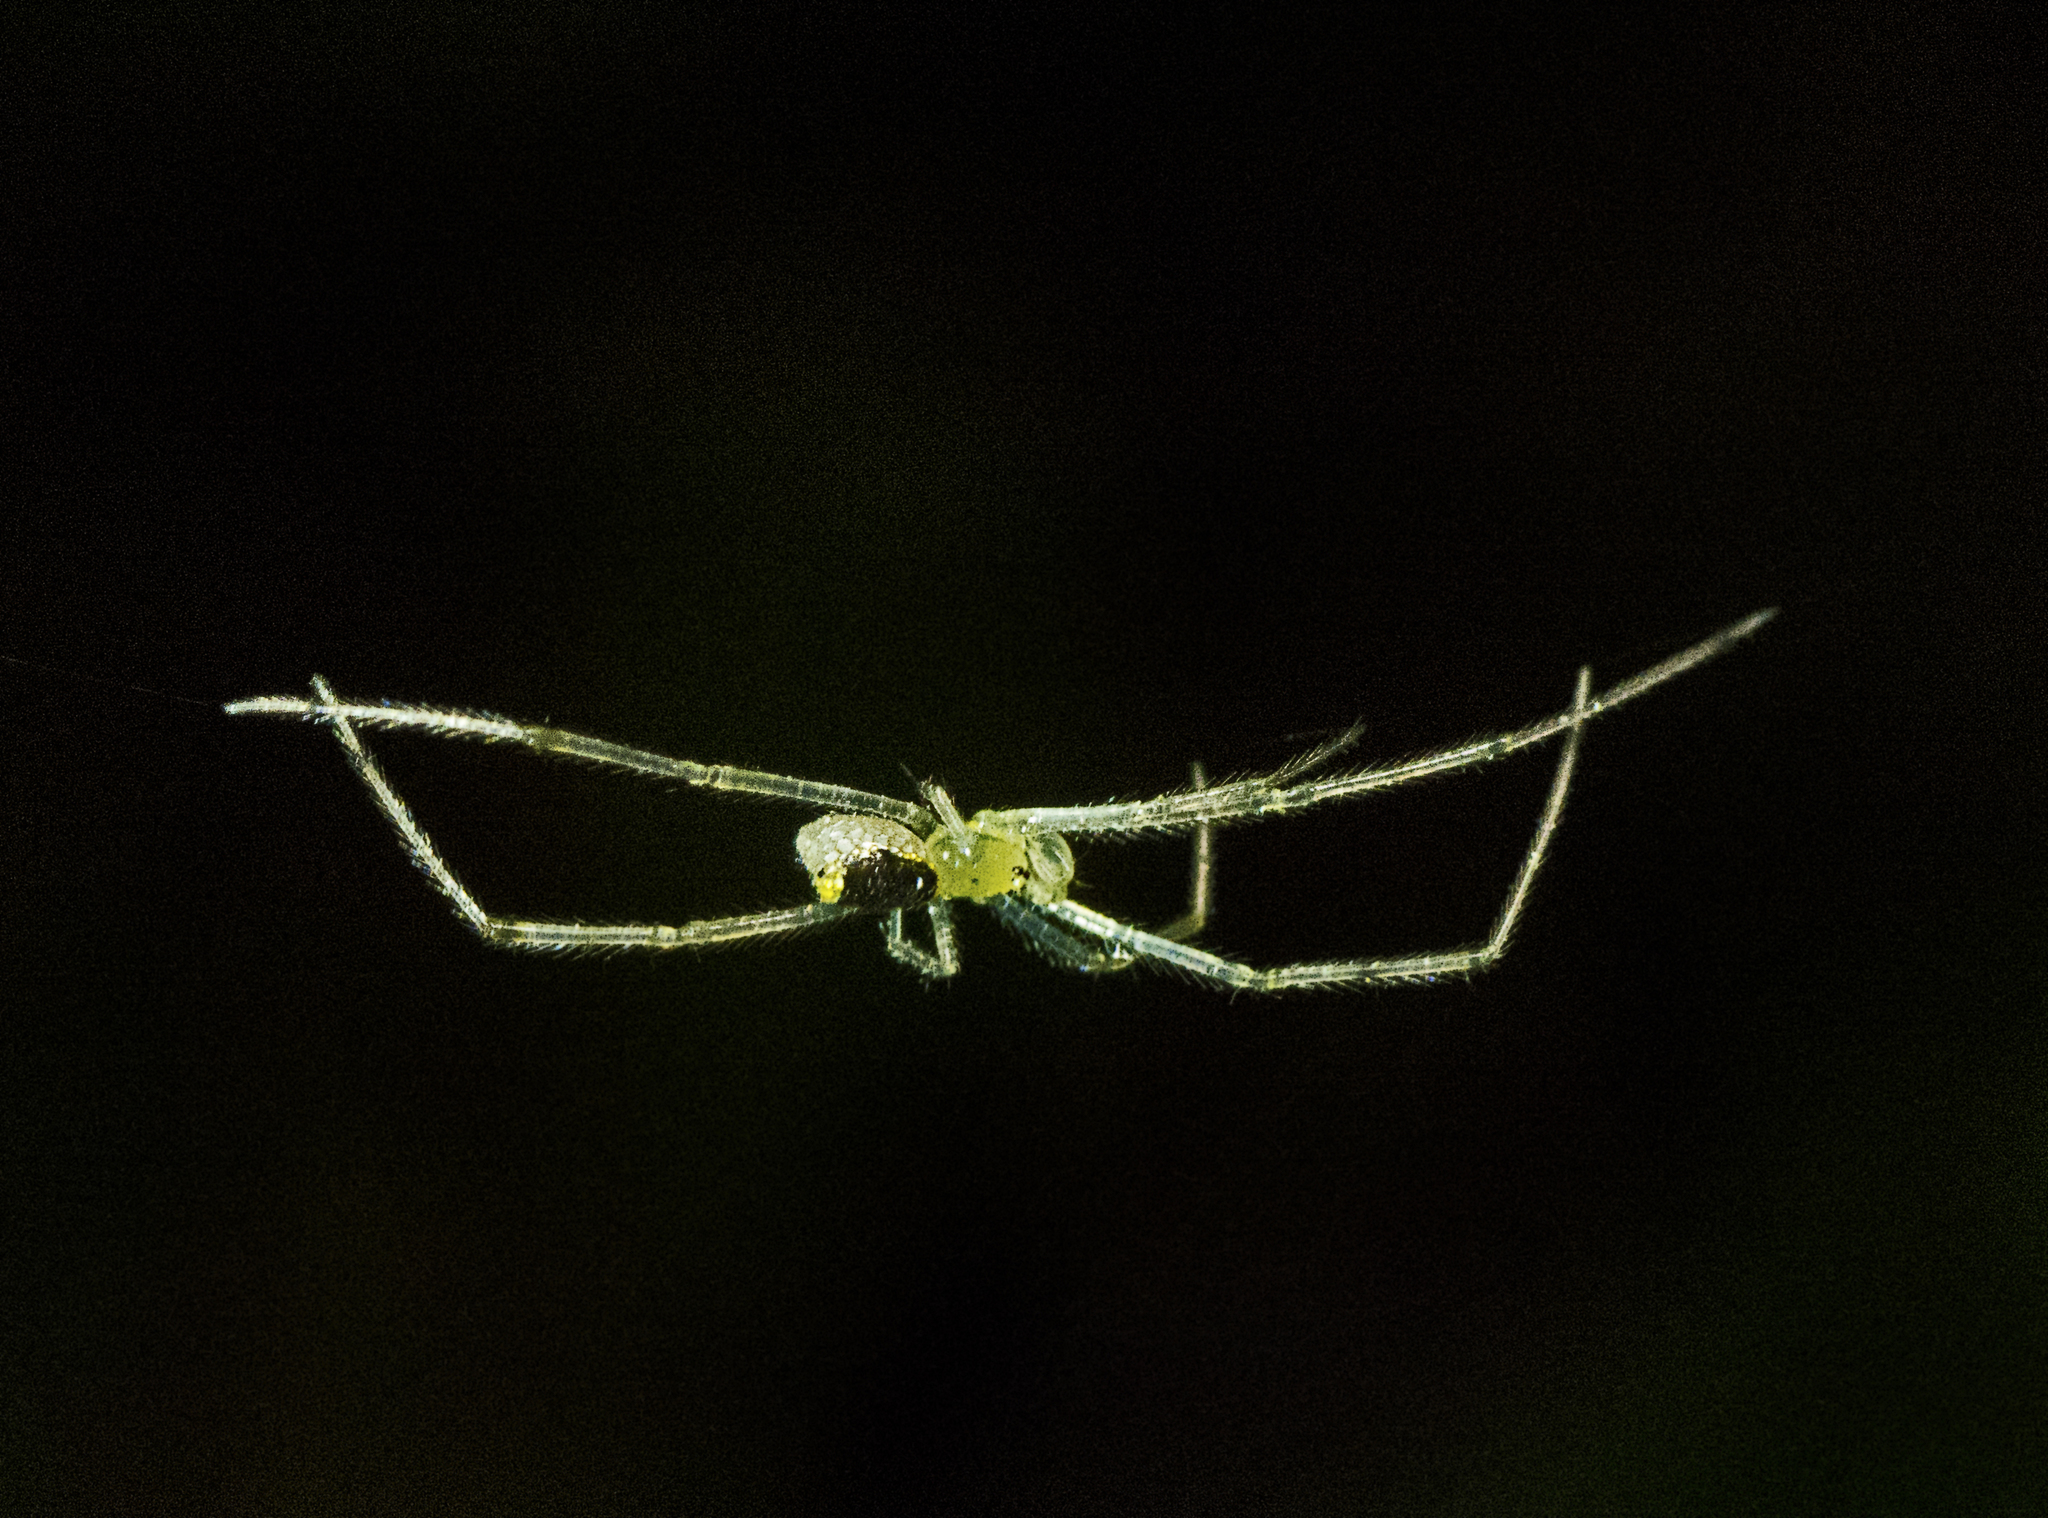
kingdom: Animalia
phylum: Arthropoda
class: Arachnida
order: Araneae
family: Theridiidae
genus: Thwaitesia
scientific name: Thwaitesia nigronodosa
